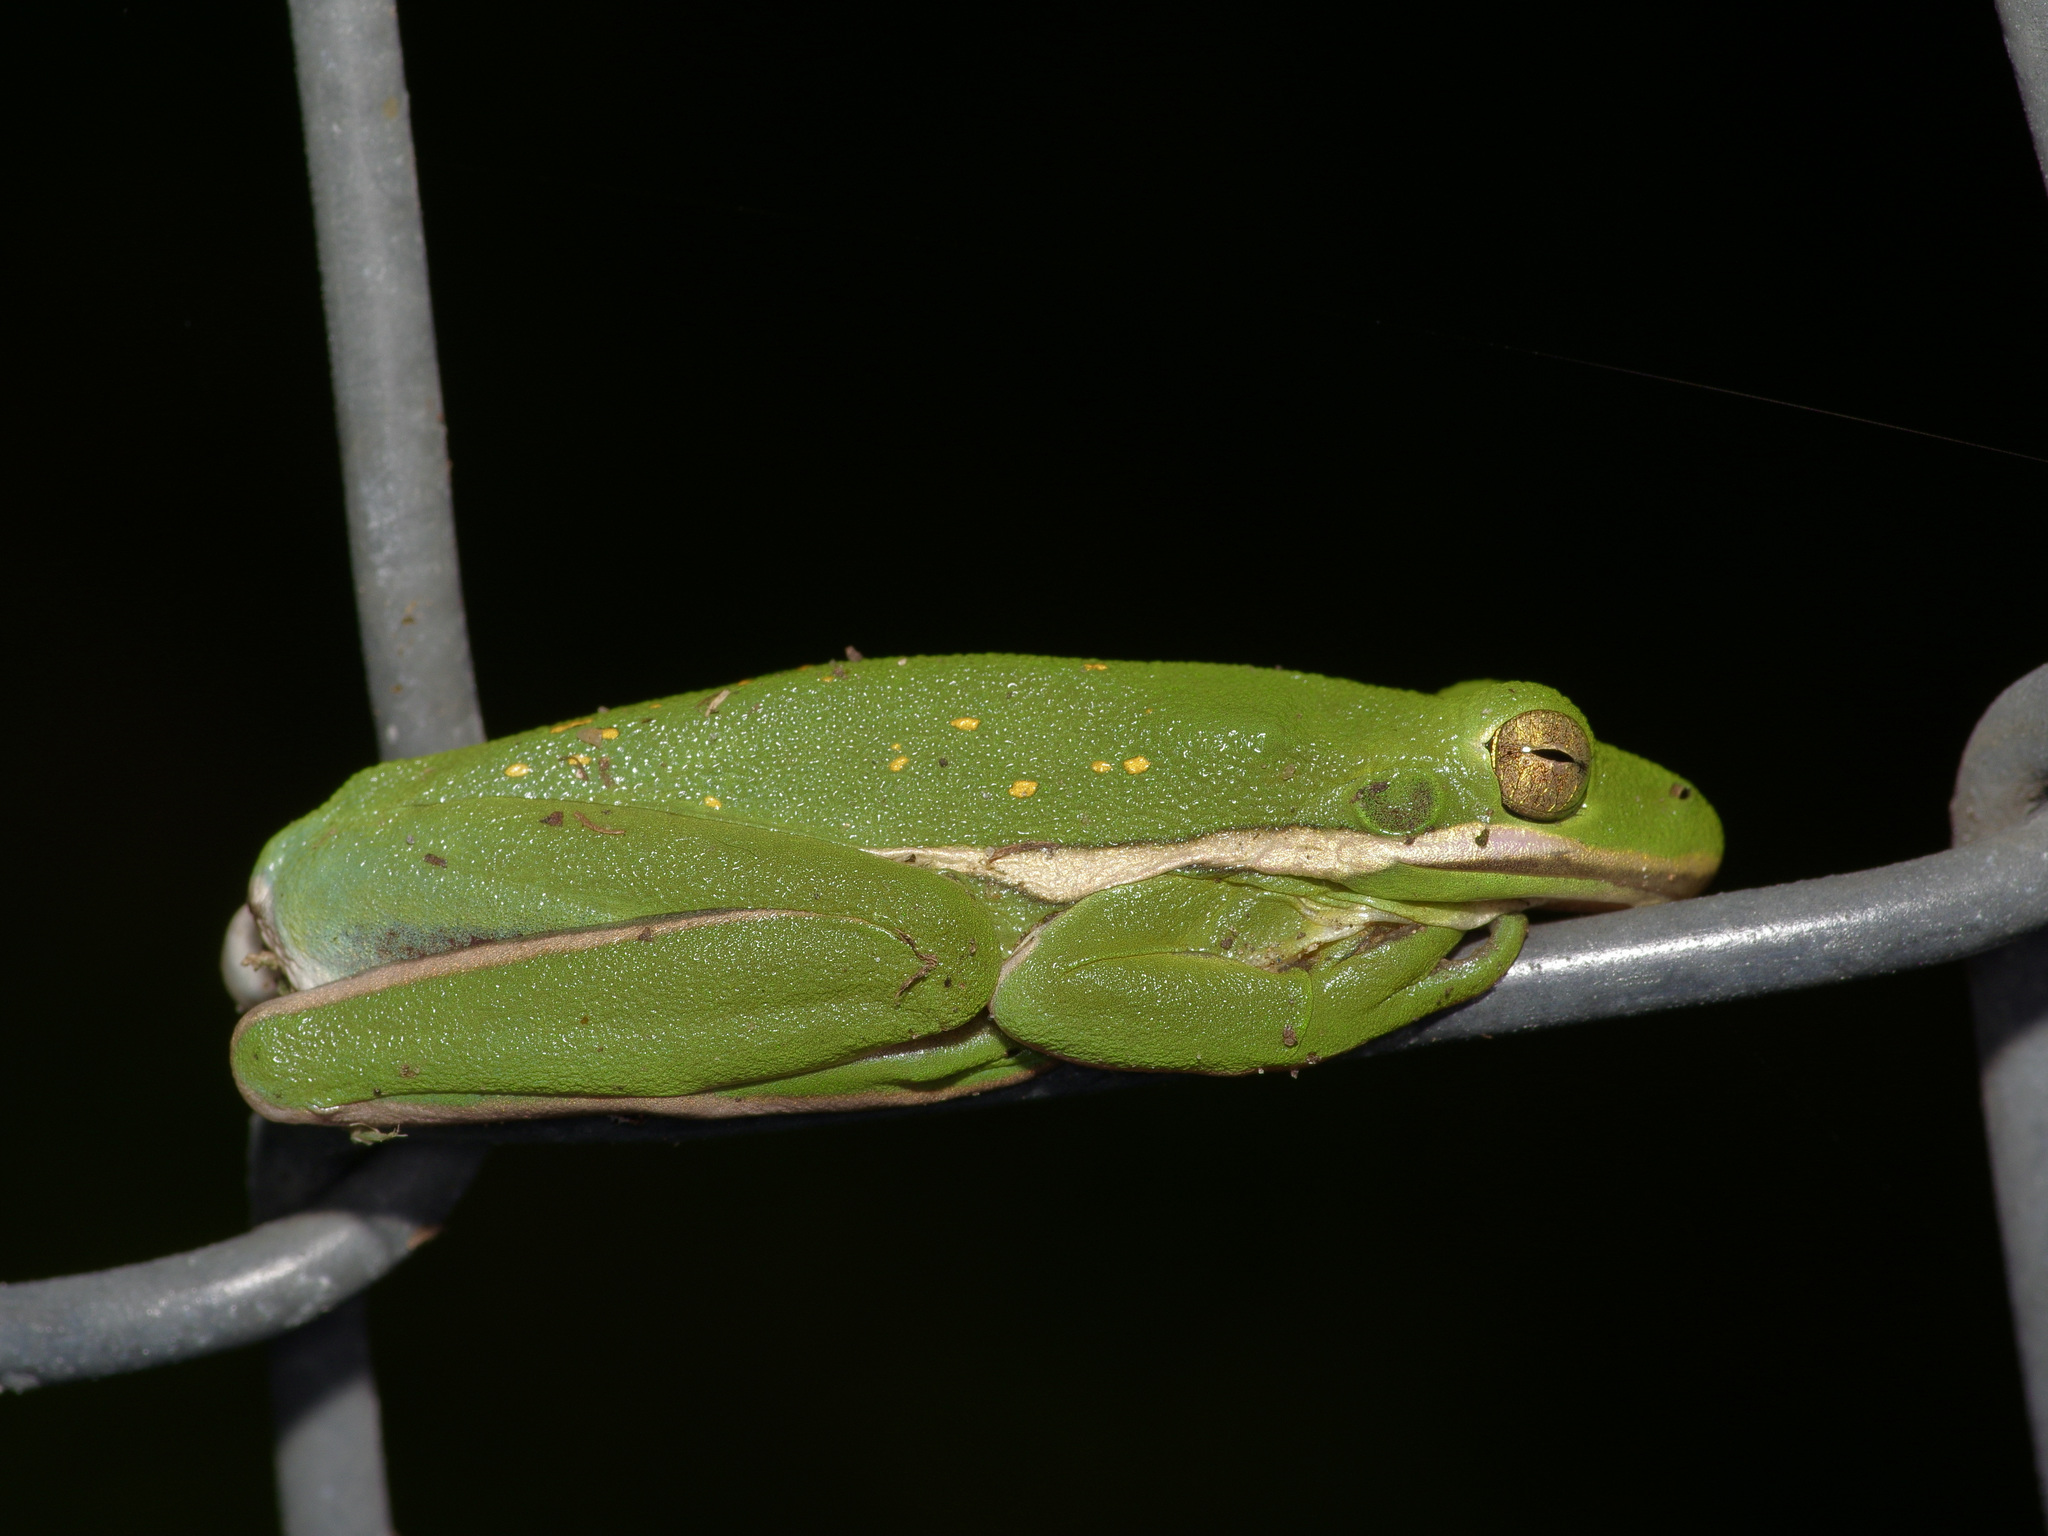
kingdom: Animalia
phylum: Chordata
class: Amphibia
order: Anura
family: Hylidae
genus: Dryophytes
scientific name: Dryophytes cinereus
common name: Green treefrog
